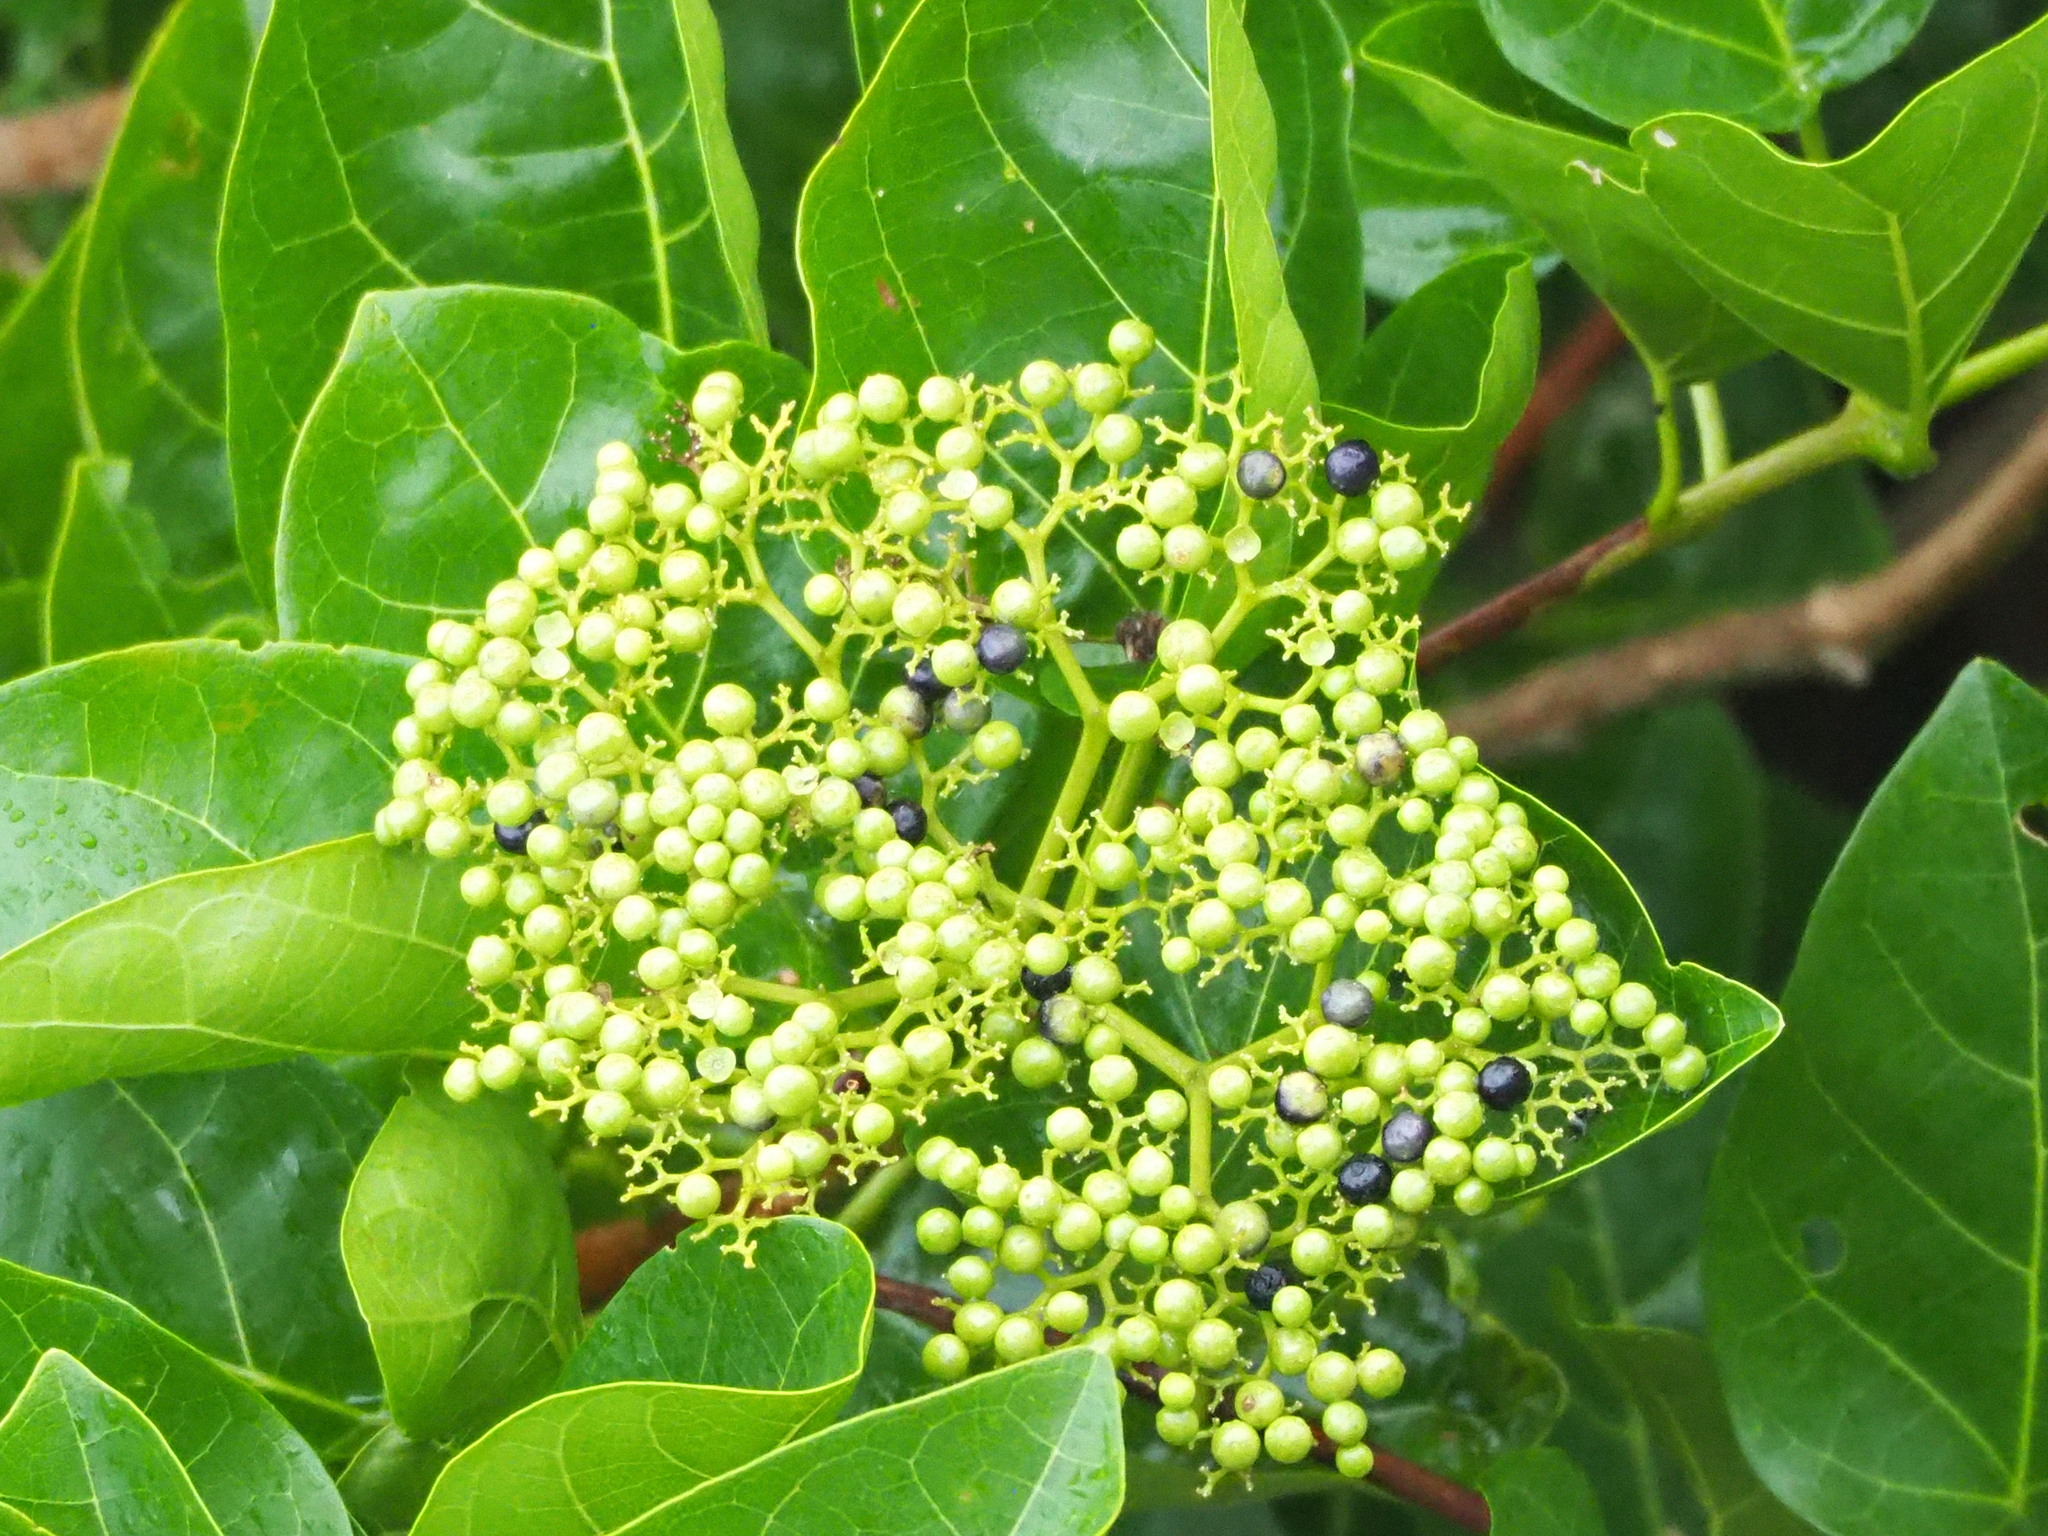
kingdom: Plantae
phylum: Tracheophyta
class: Magnoliopsida
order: Lamiales
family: Lamiaceae
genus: Premna
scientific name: Premna serratifolia
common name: Bastard guelder
